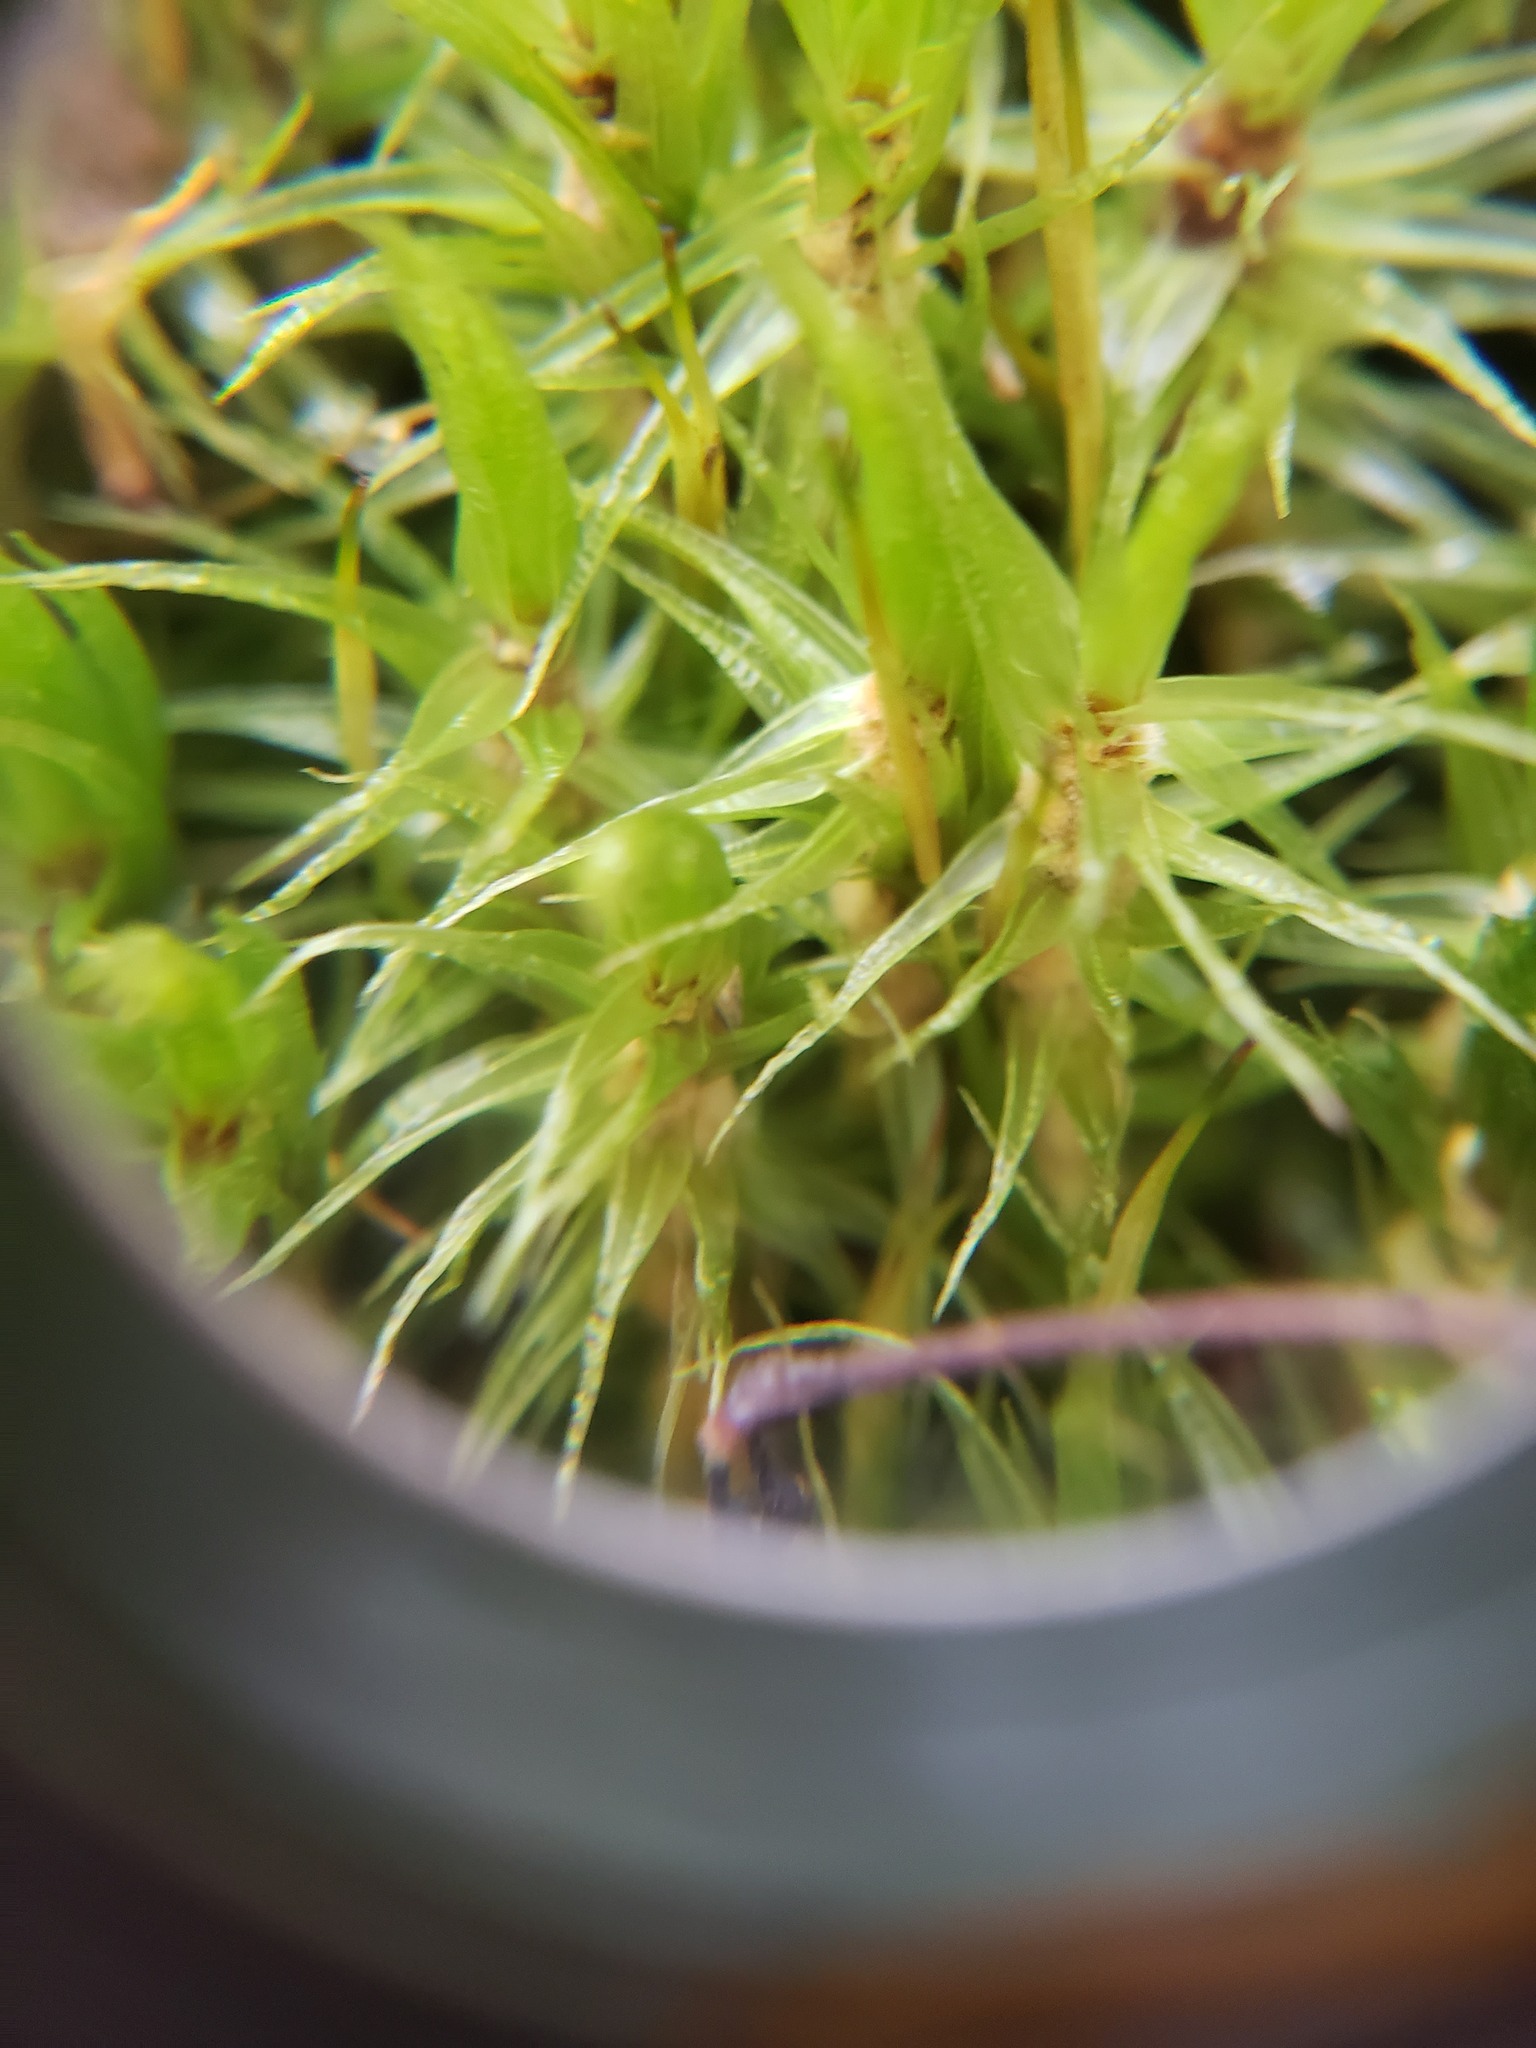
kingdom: Plantae
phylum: Bryophyta
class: Bryopsida
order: Dicranales
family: Dicranaceae
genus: Dicranum
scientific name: Dicranum polysetum
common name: Rugose fork-moss
